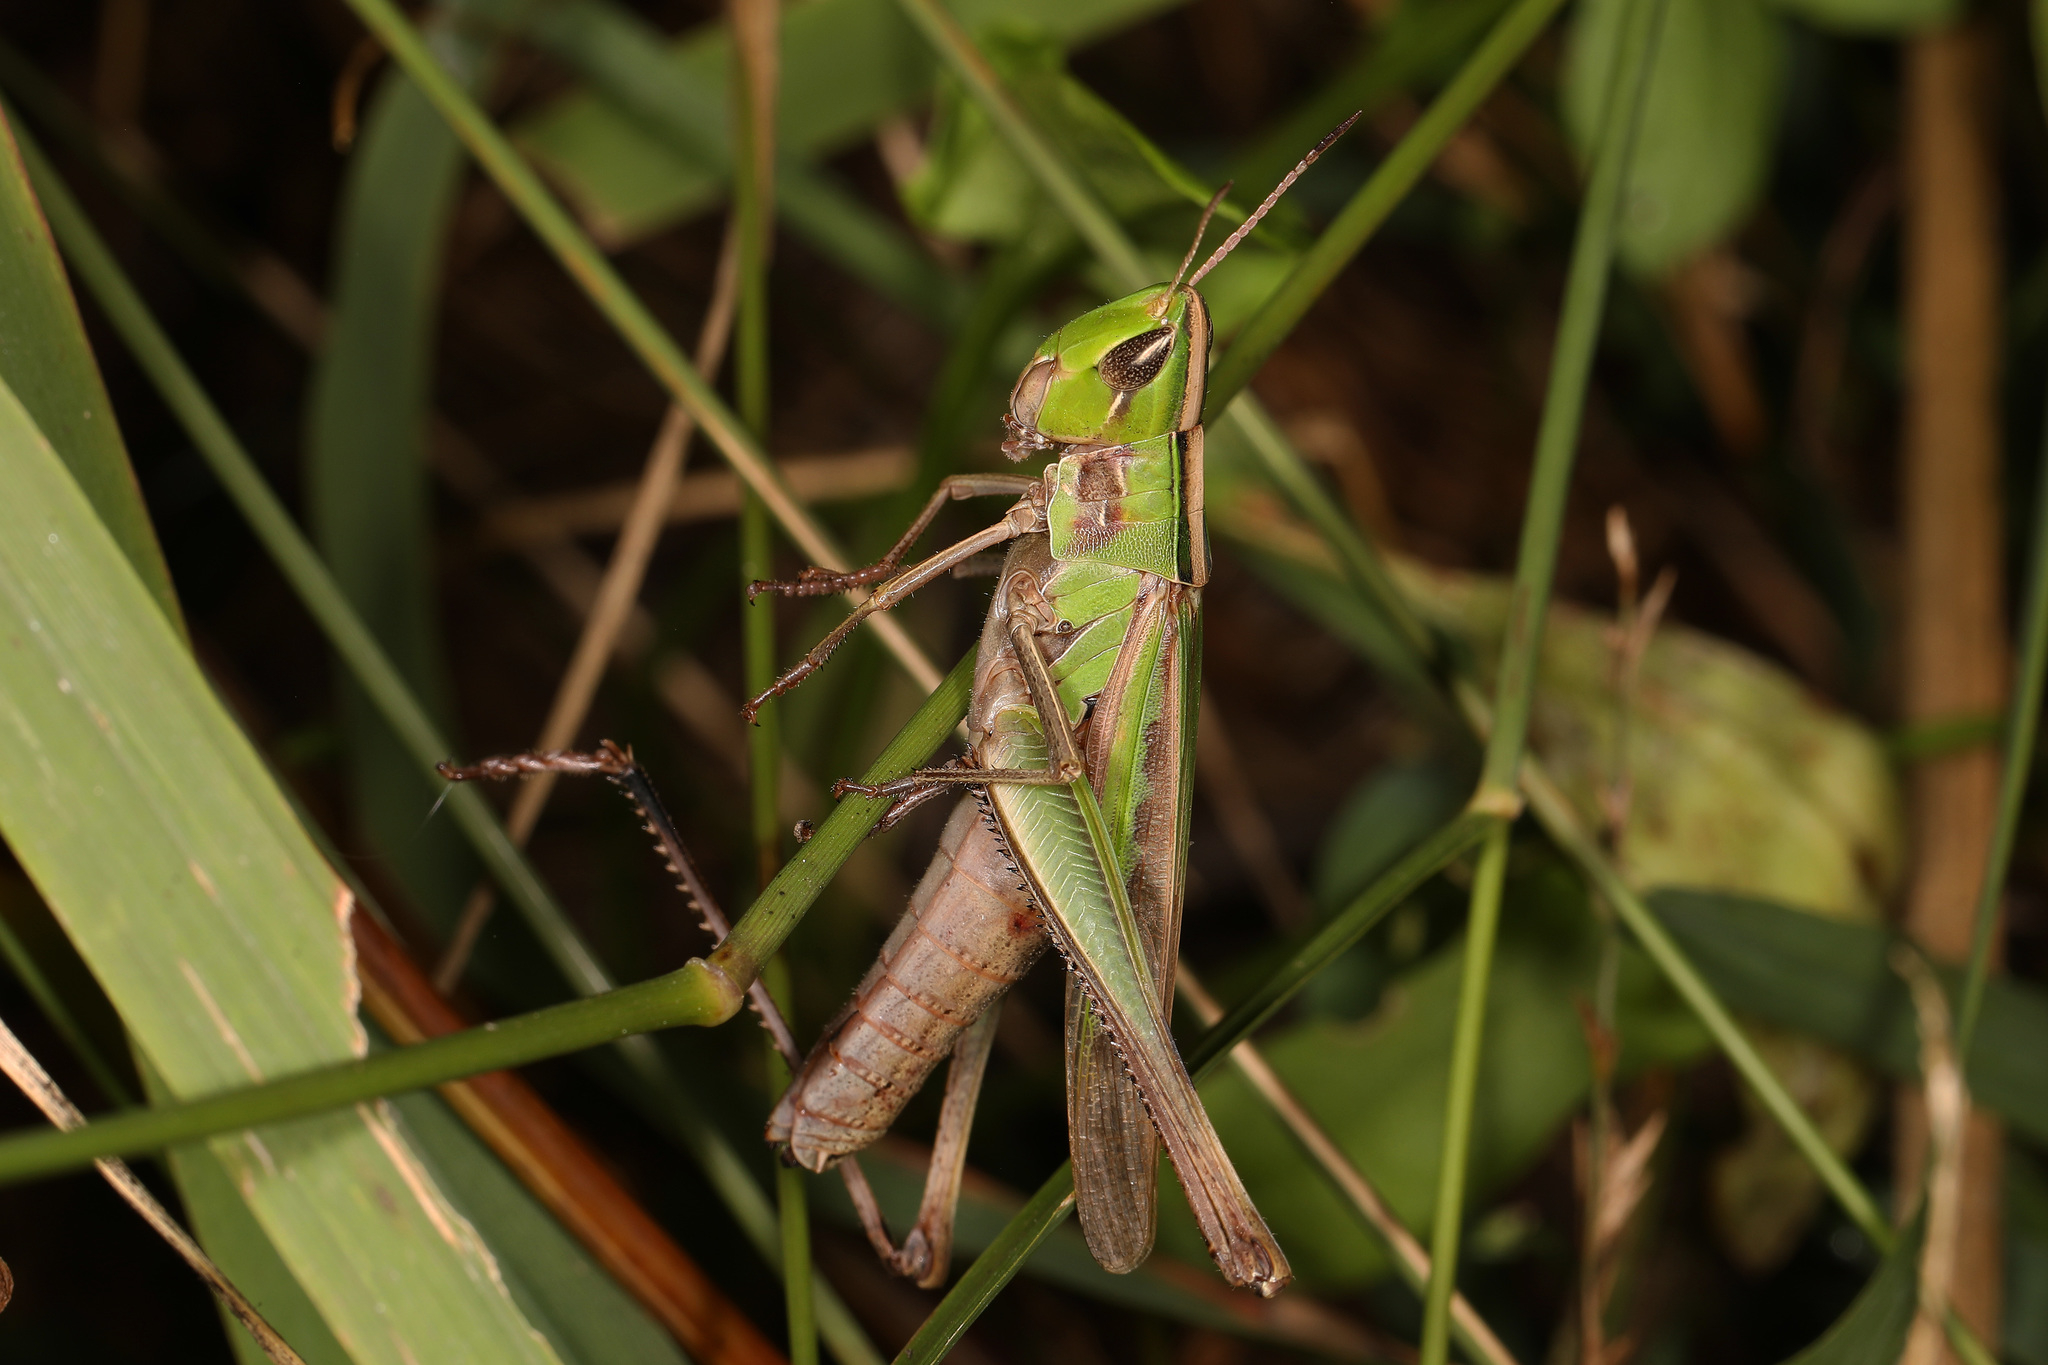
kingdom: Animalia
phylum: Arthropoda
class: Insecta
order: Orthoptera
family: Acrididae
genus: Syrbula
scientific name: Syrbula admirabilis
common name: Handsome grasshopper
